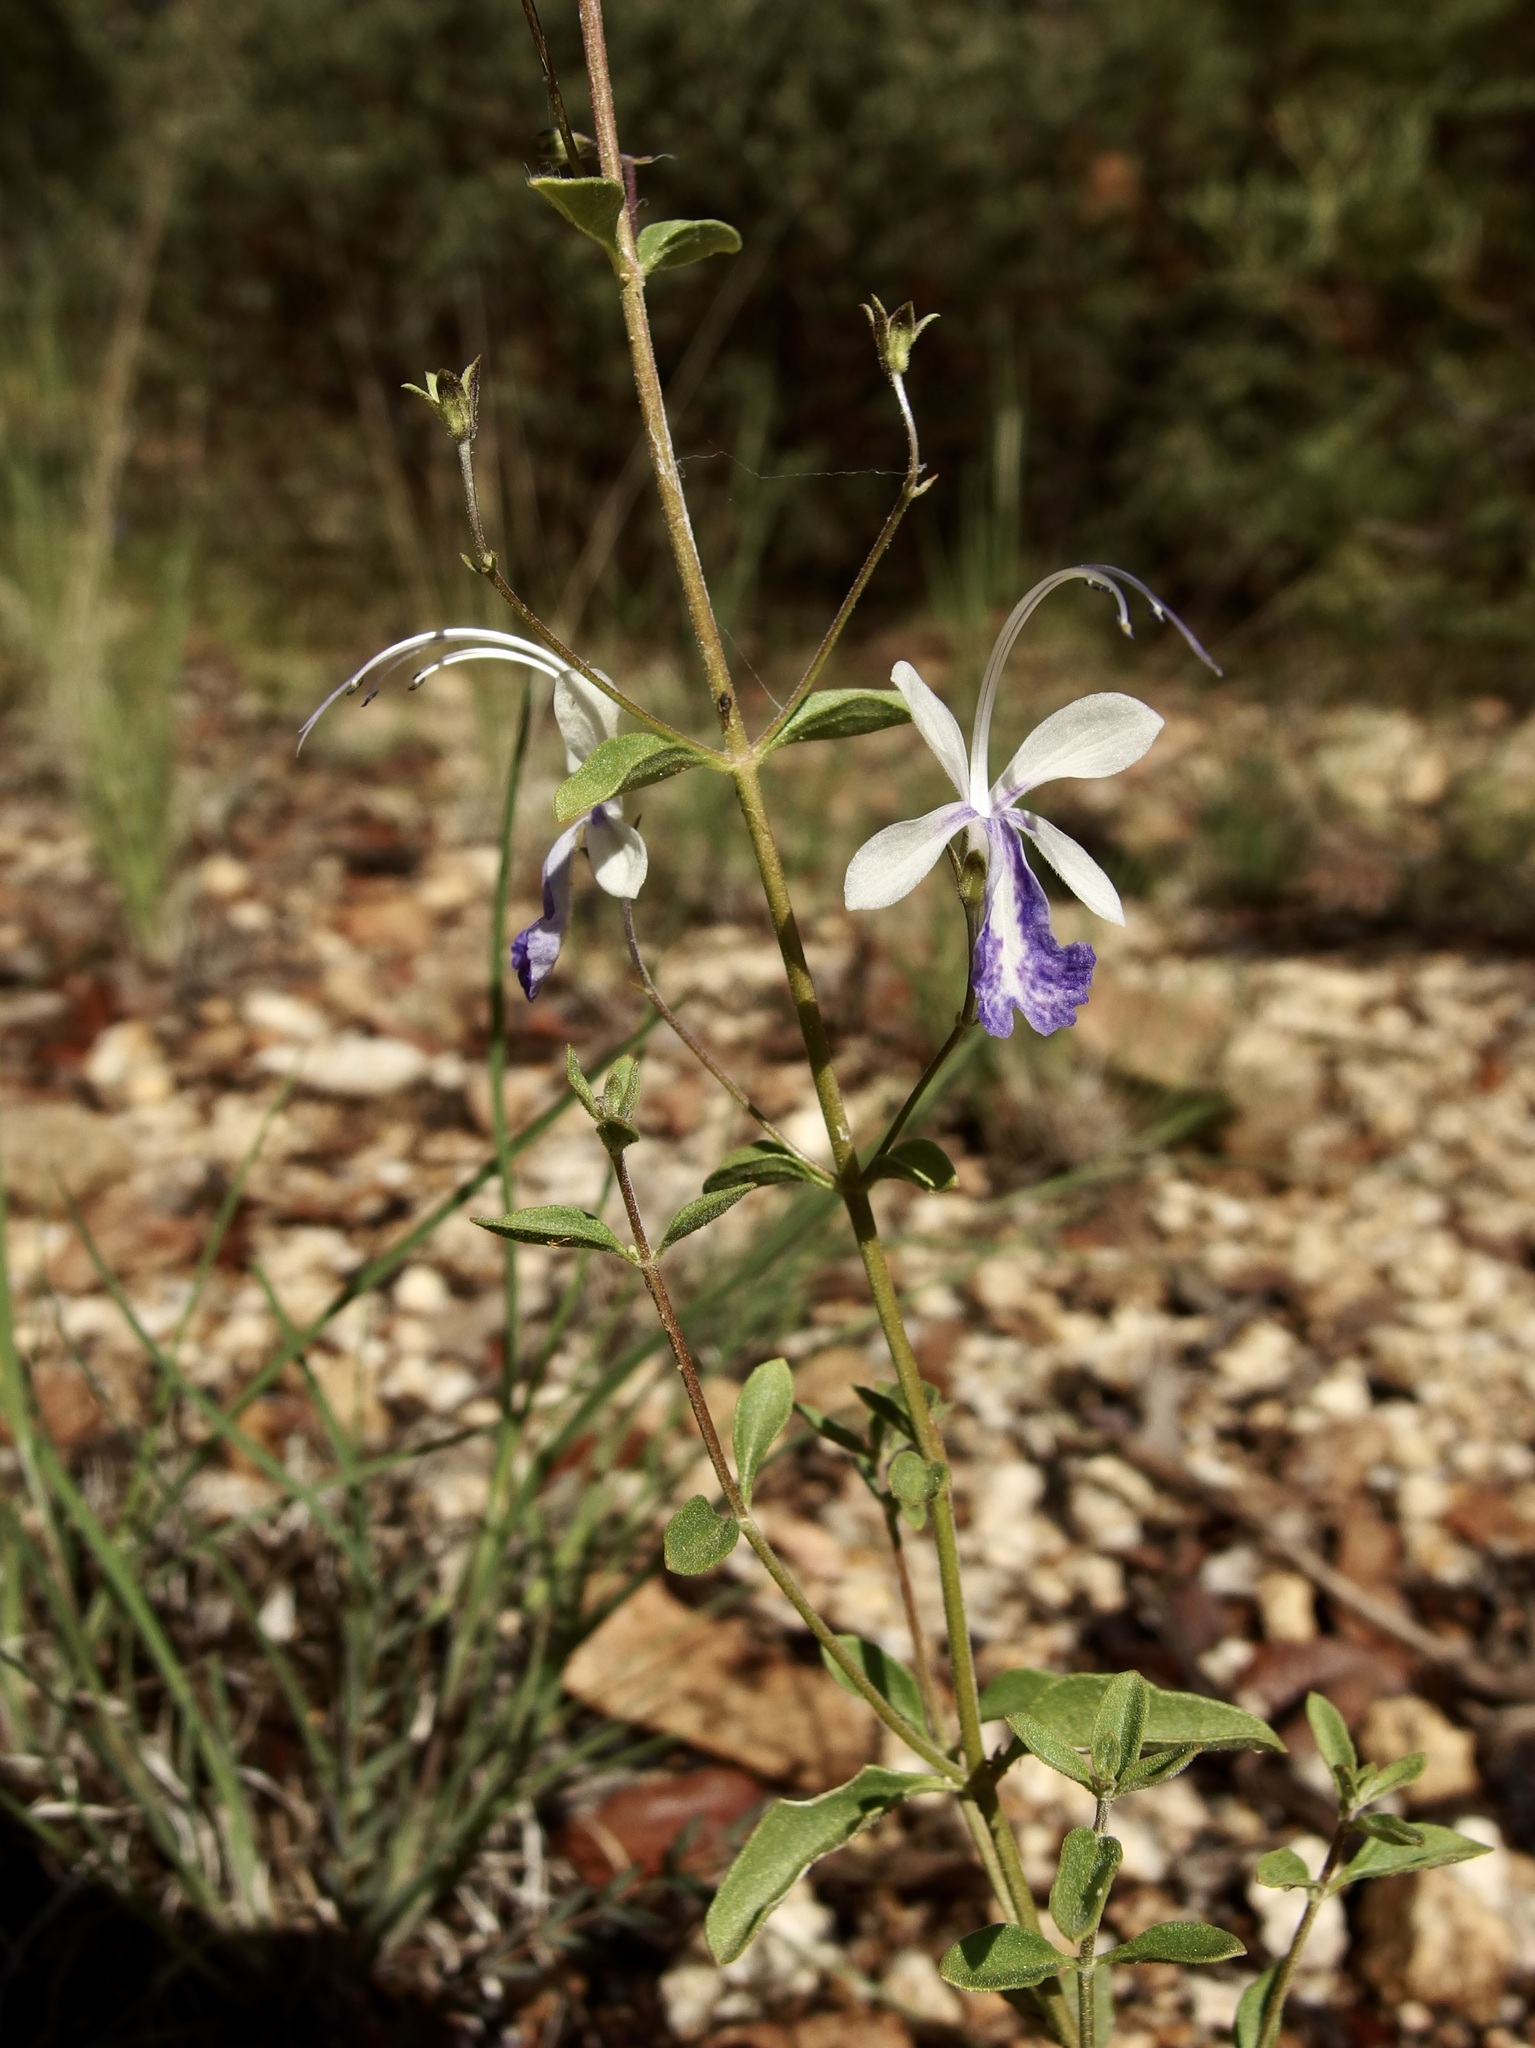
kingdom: Plantae
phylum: Tracheophyta
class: Magnoliopsida
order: Lamiales
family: Lamiaceae
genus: Trichostema
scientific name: Trichostema arizonicum
